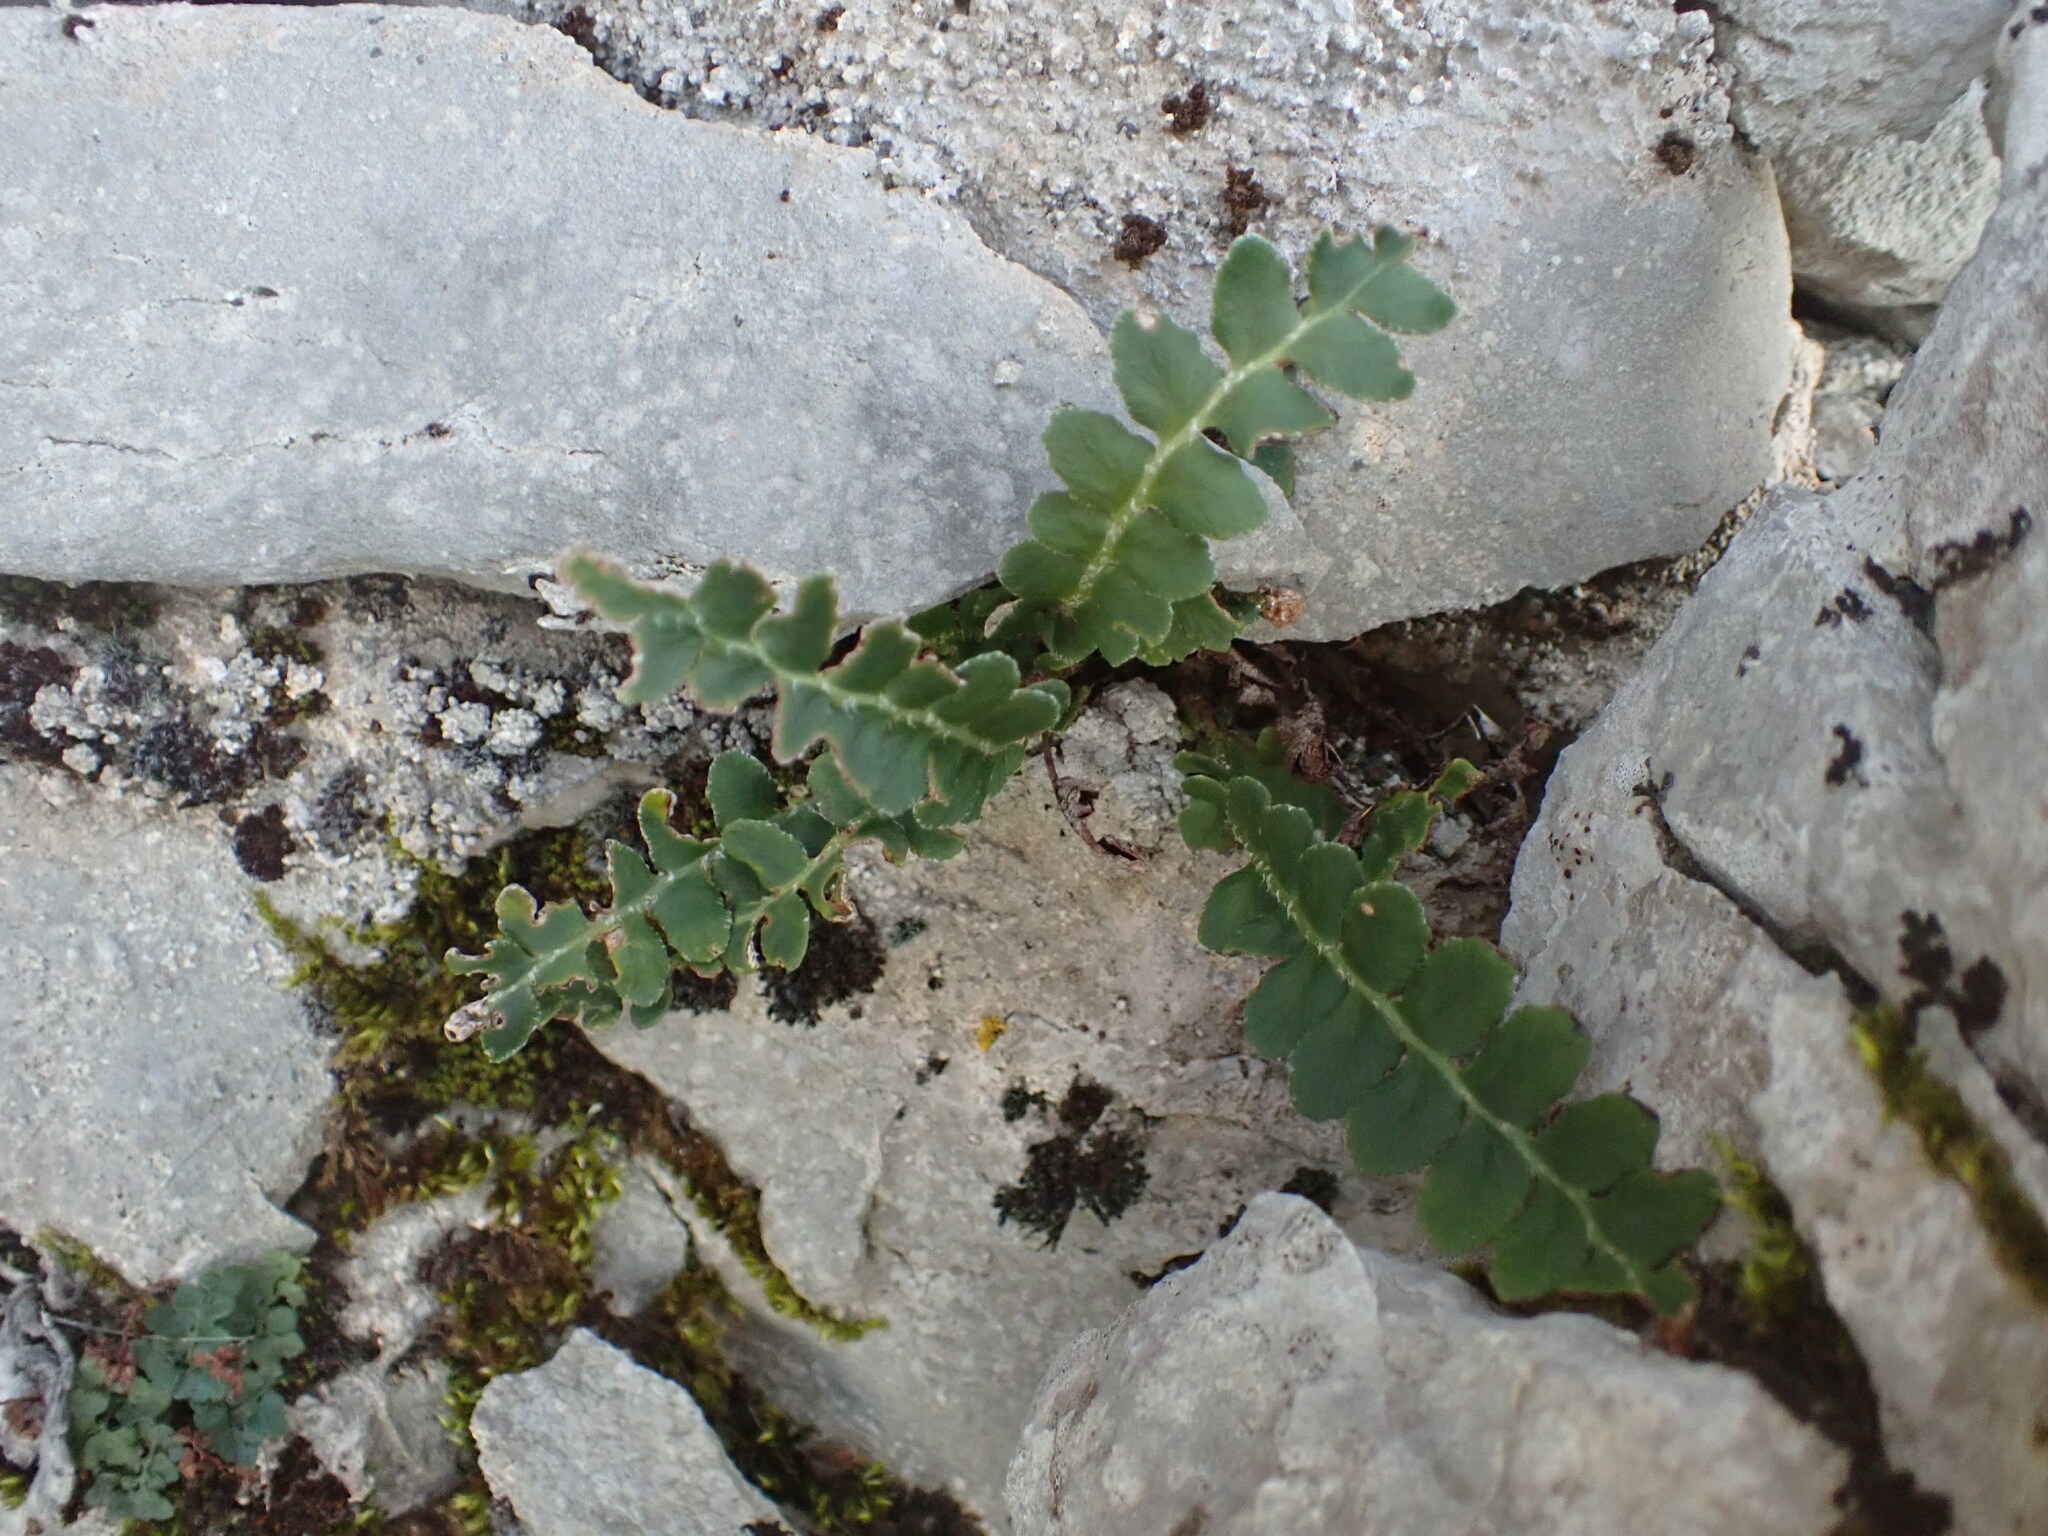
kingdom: Plantae
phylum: Tracheophyta
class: Polypodiopsida
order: Polypodiales
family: Aspleniaceae
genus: Asplenium
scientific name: Asplenium ceterach
